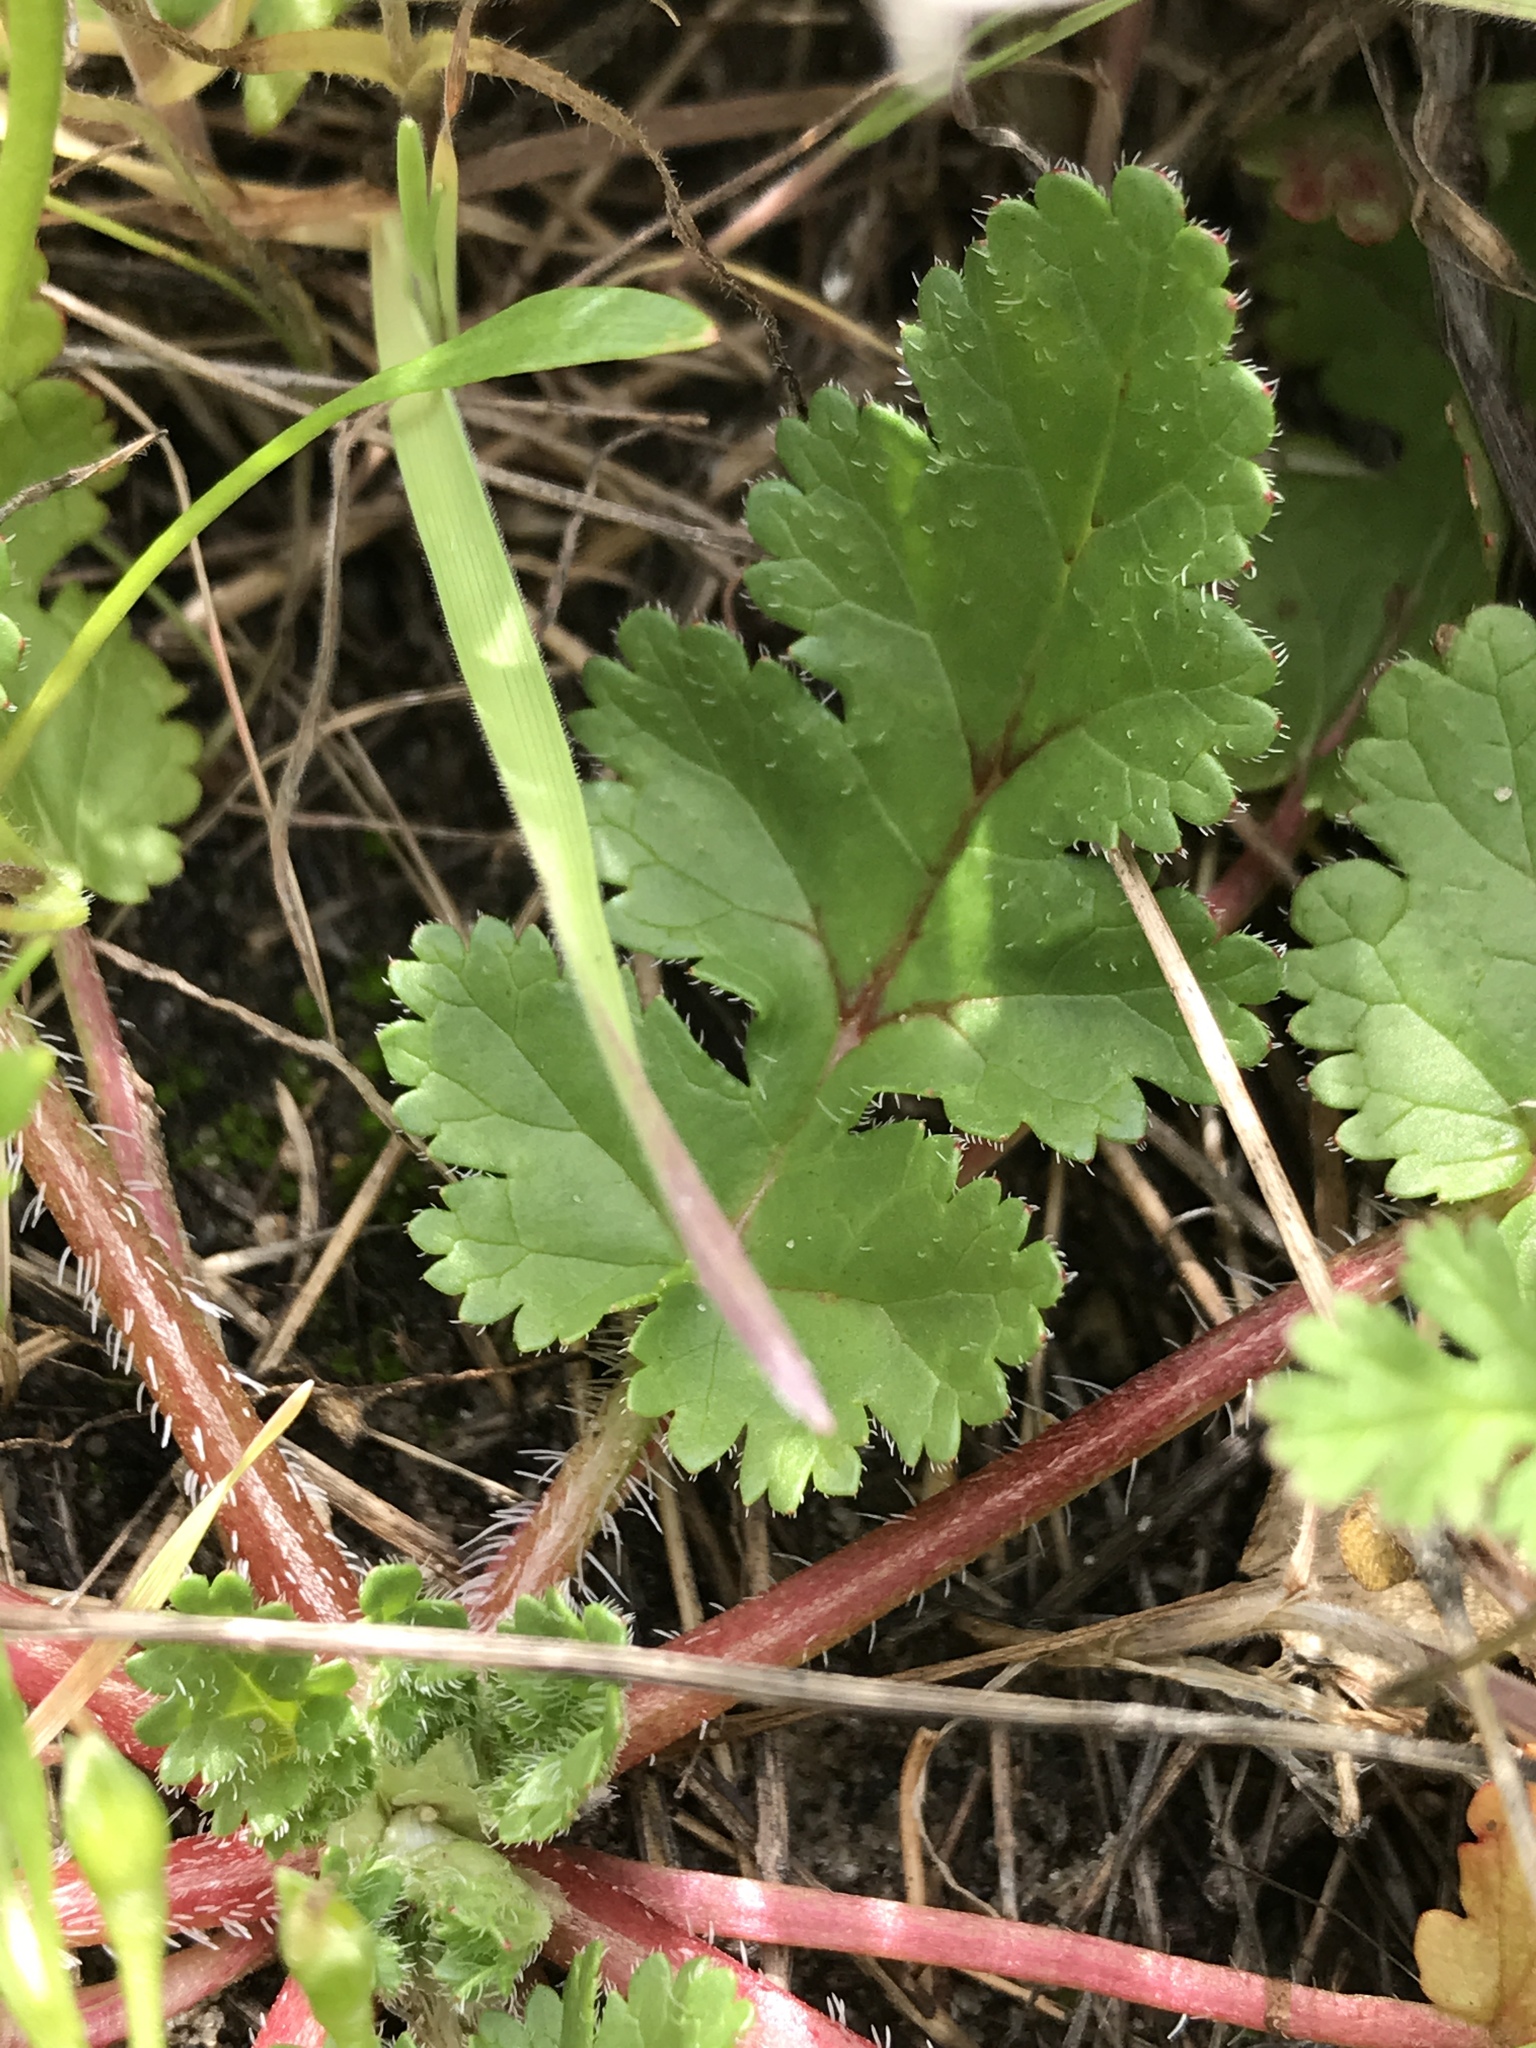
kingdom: Plantae
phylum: Tracheophyta
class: Magnoliopsida
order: Geraniales
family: Geraniaceae
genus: Erodium
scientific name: Erodium
